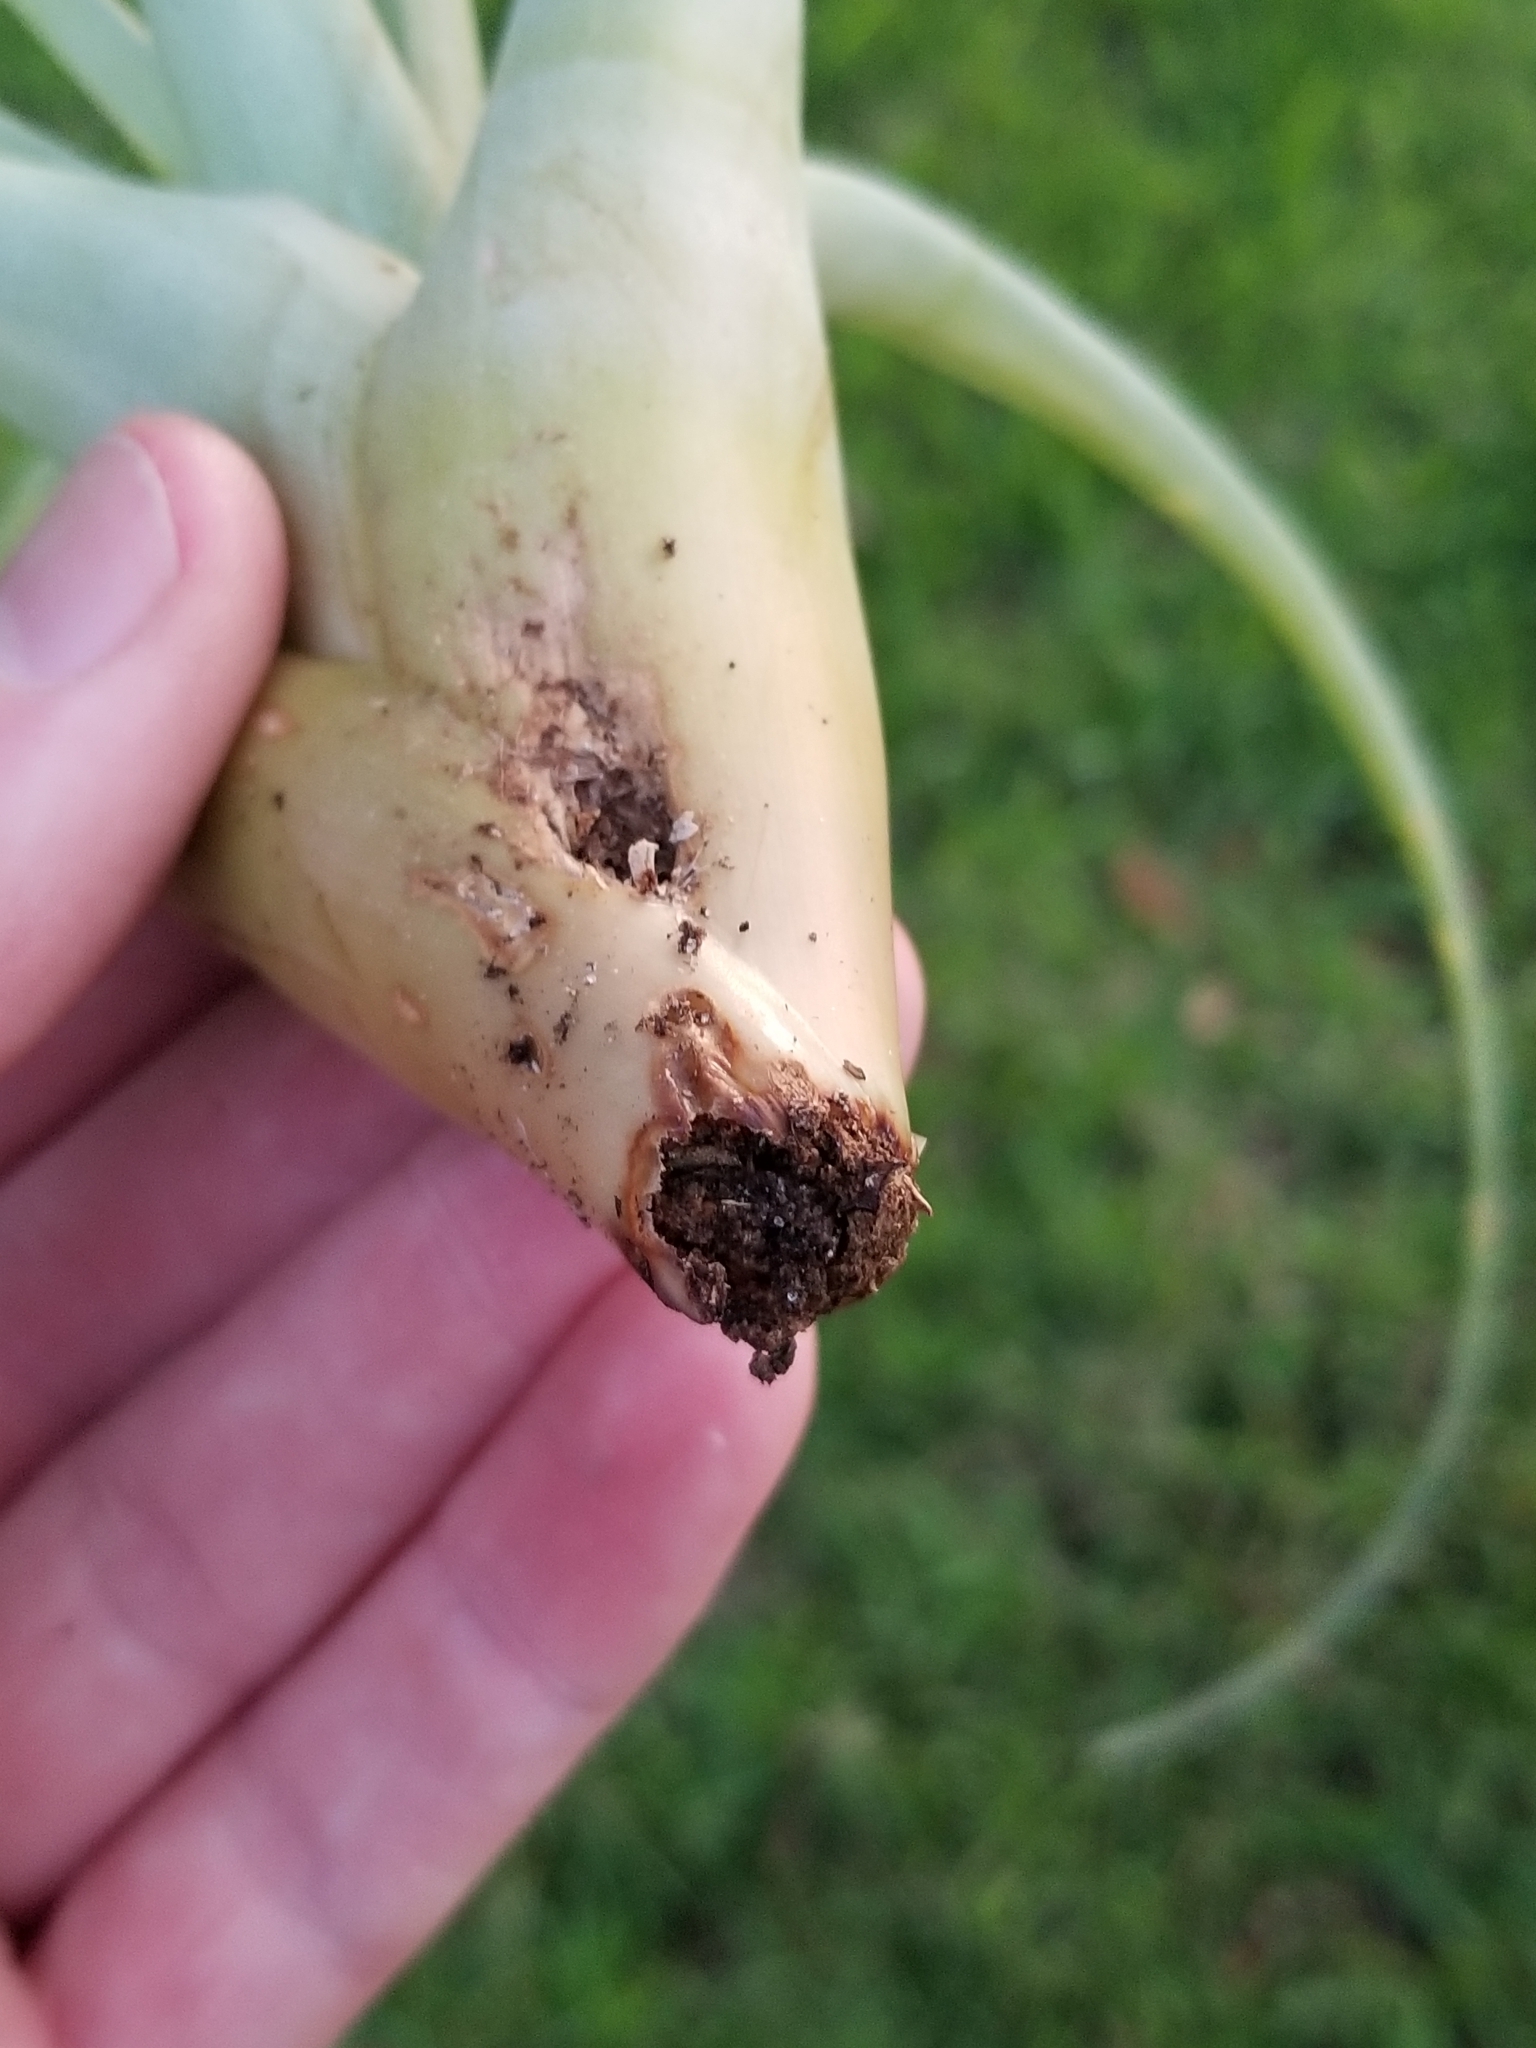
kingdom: Animalia
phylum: Arthropoda
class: Insecta
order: Coleoptera
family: Dryophthoridae
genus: Metamasius
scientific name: Metamasius callizona
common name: Mexican bromeliad weevil
